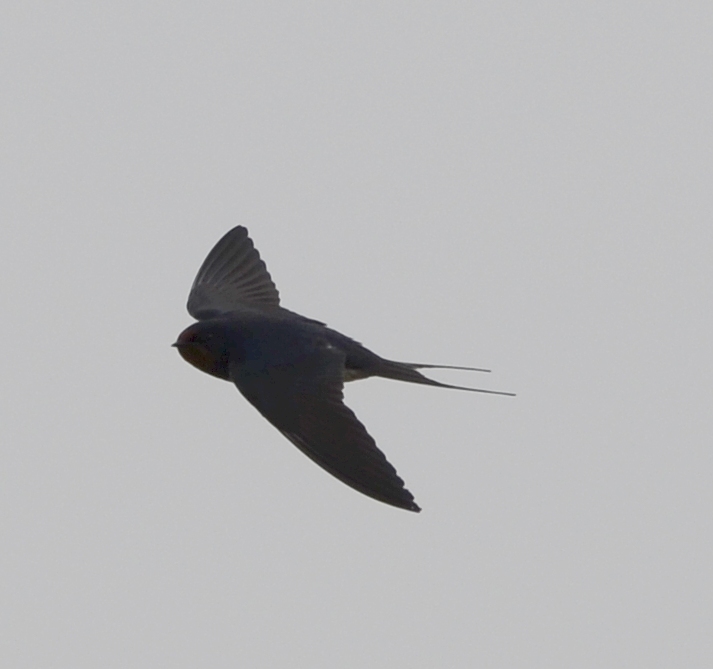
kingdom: Animalia
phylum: Chordata
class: Aves
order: Passeriformes
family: Hirundinidae
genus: Hirundo
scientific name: Hirundo rustica
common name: Barn swallow
